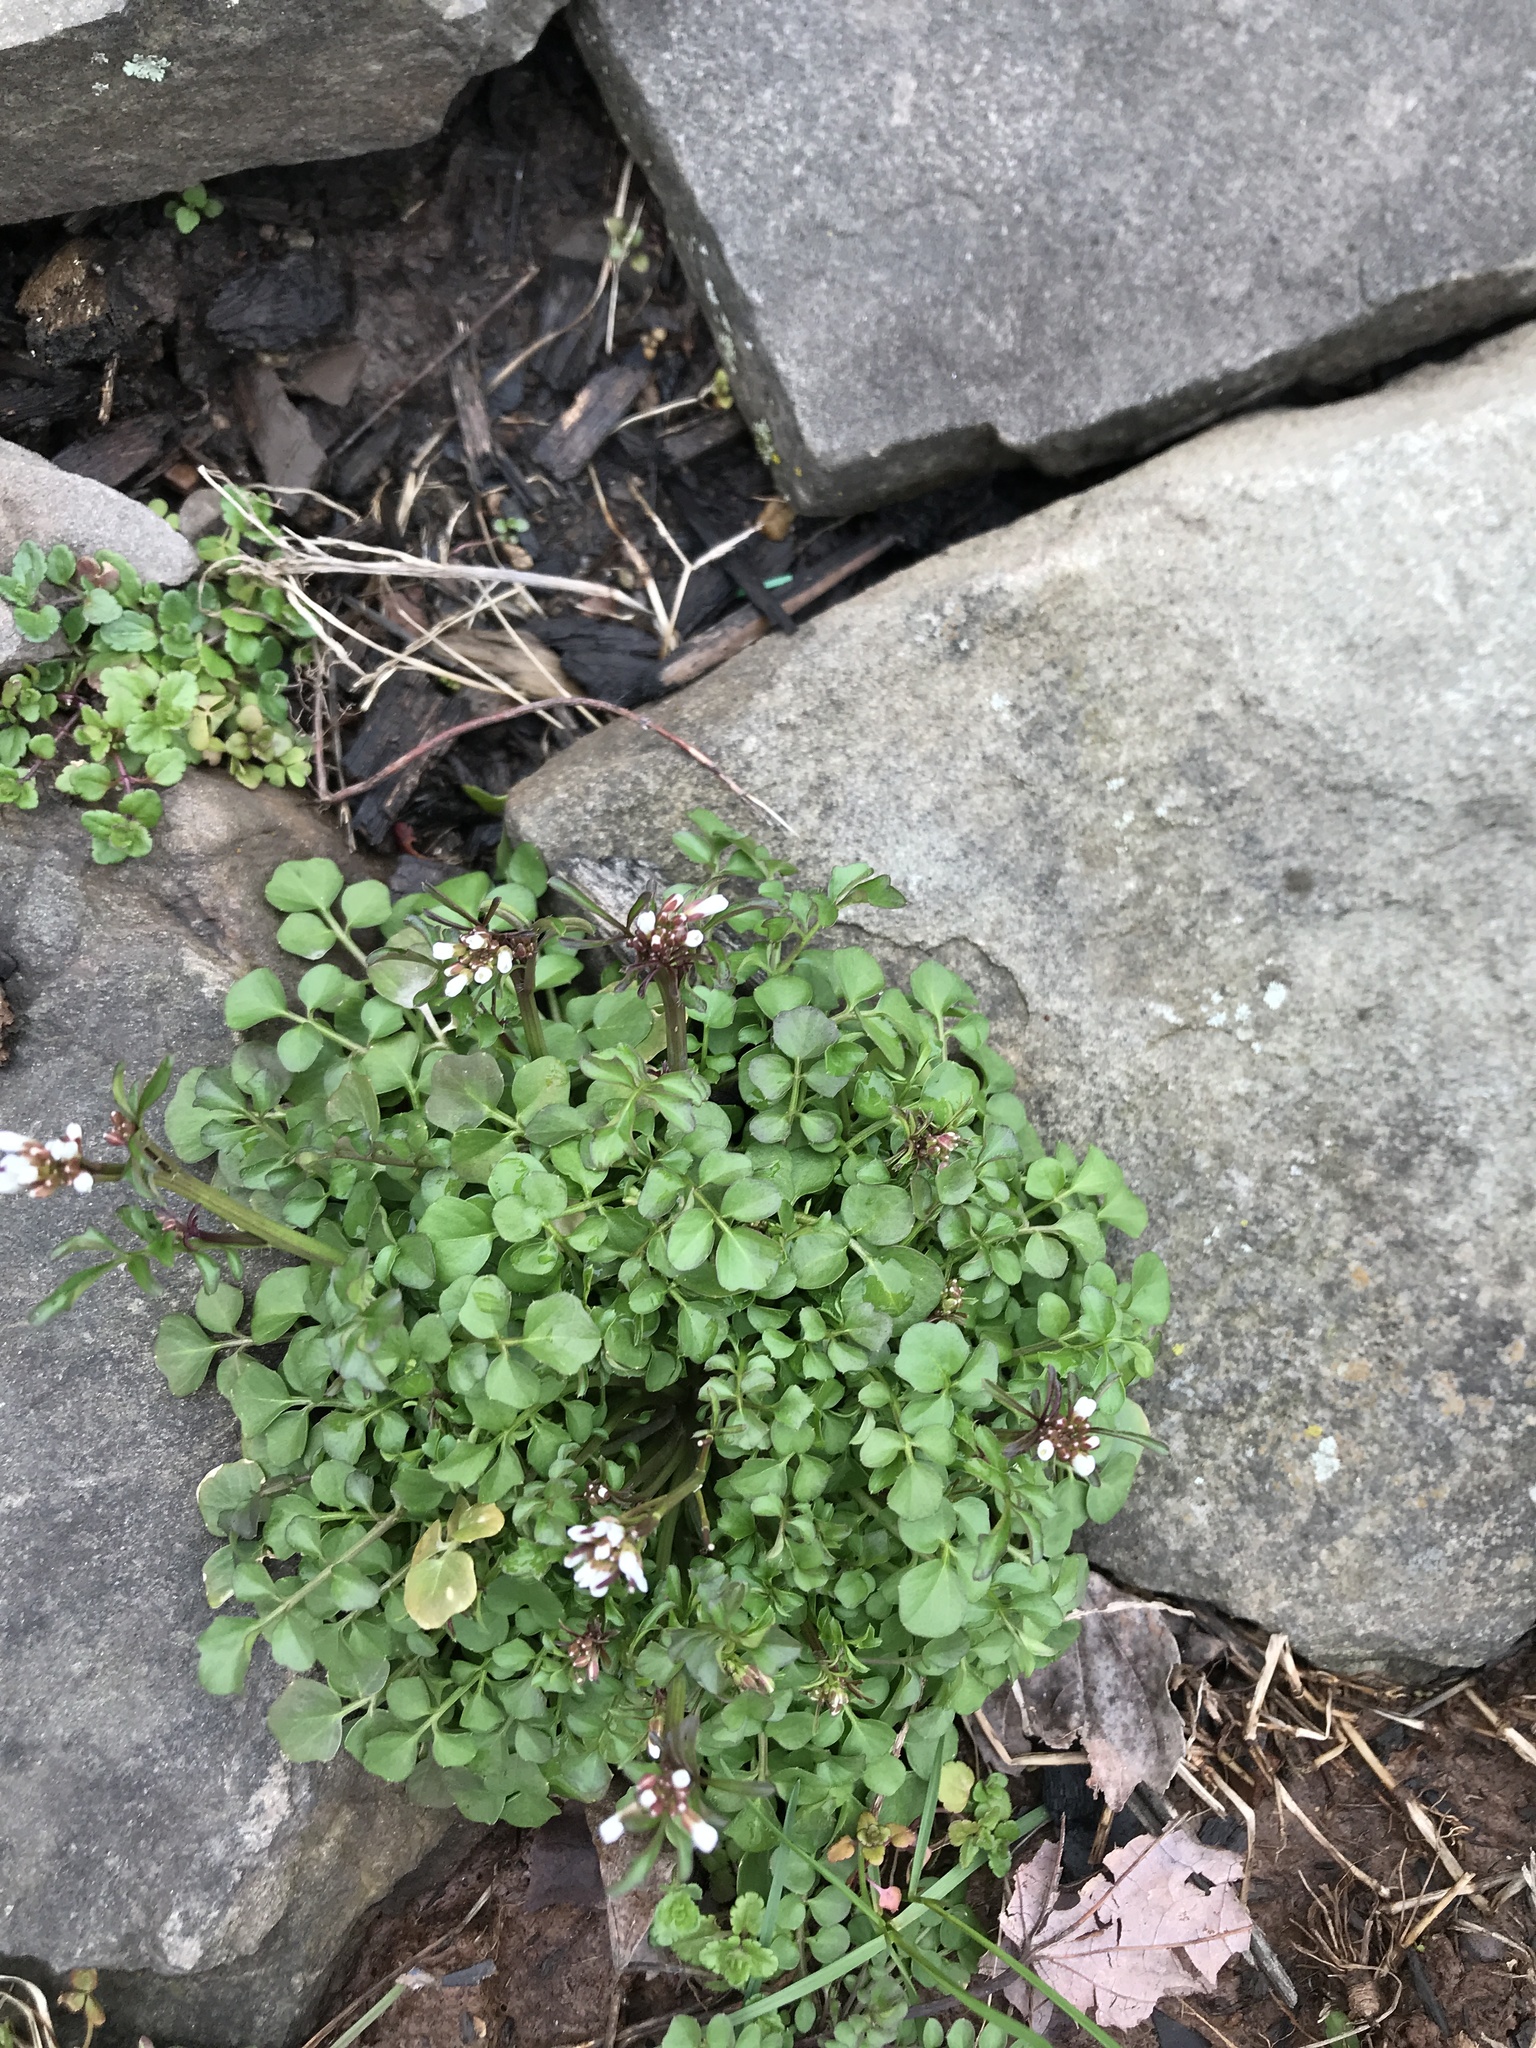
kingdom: Plantae
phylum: Tracheophyta
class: Magnoliopsida
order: Brassicales
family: Brassicaceae
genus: Cardamine
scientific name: Cardamine hirsuta
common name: Hairy bittercress
